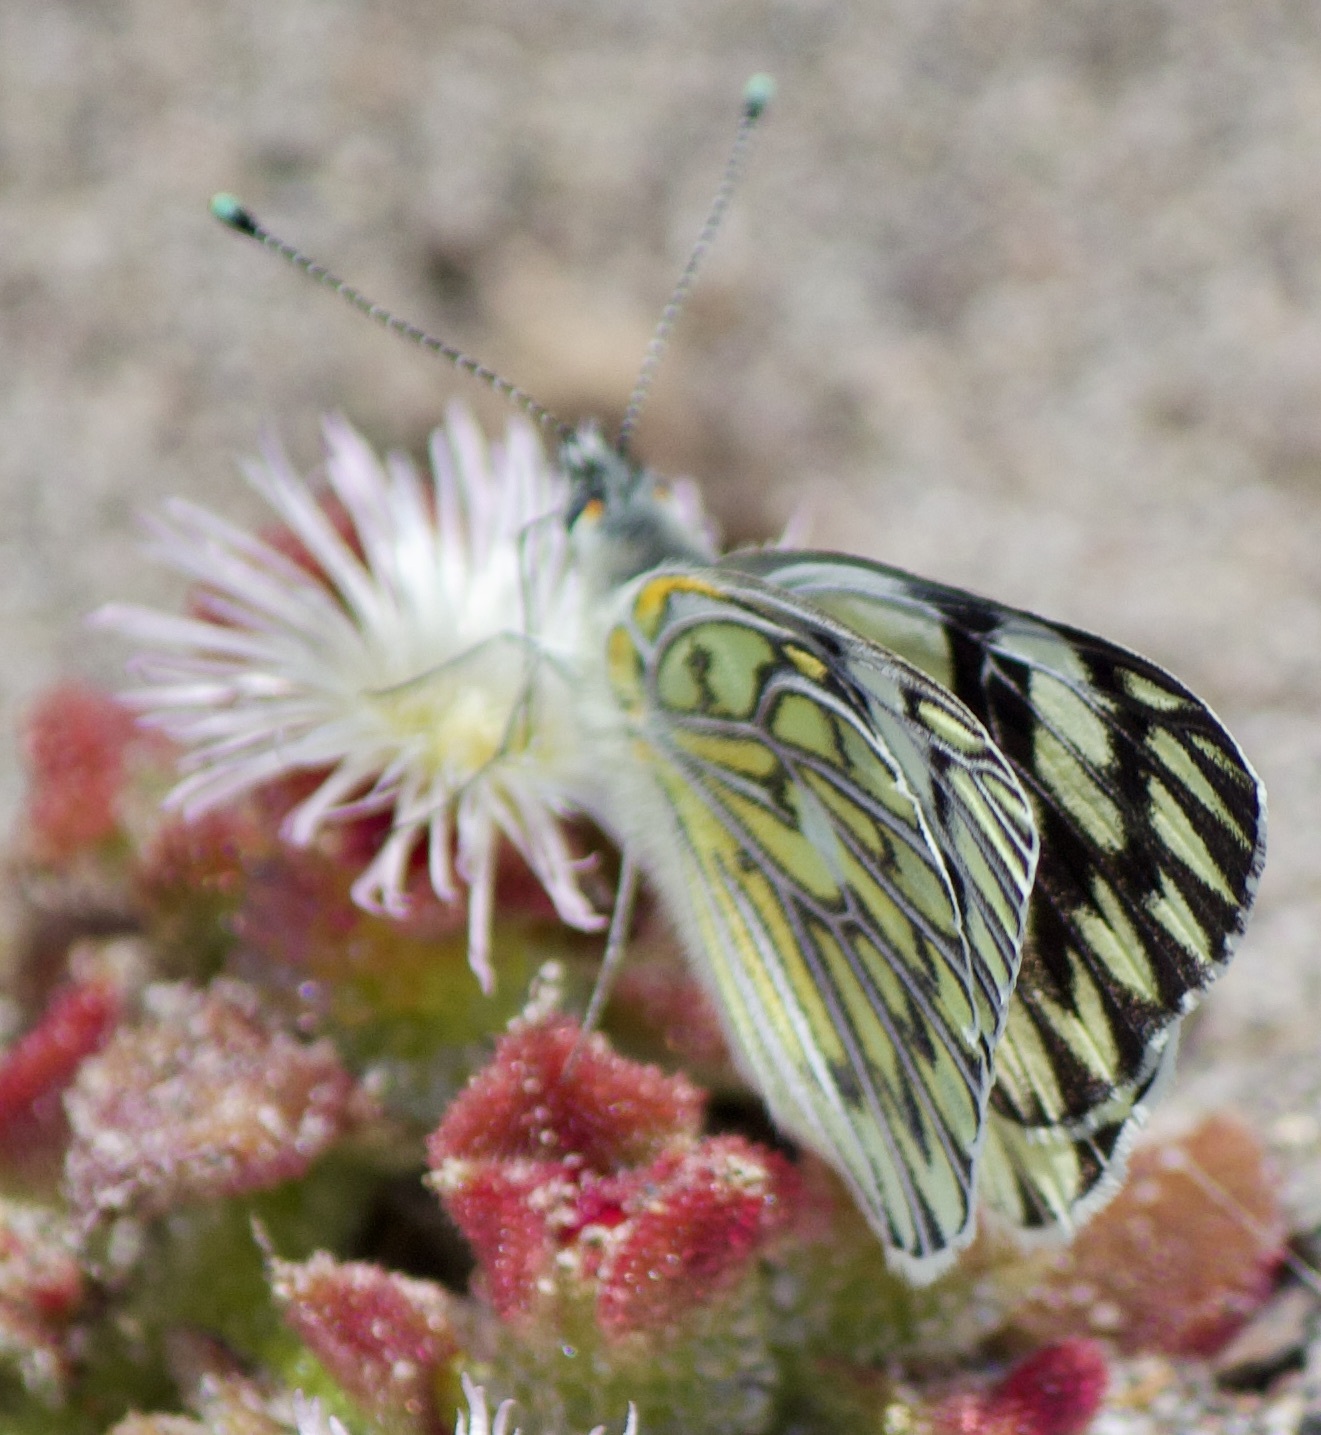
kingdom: Animalia
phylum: Arthropoda
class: Insecta
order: Lepidoptera
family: Pieridae
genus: Tatochila
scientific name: Tatochila autodice
